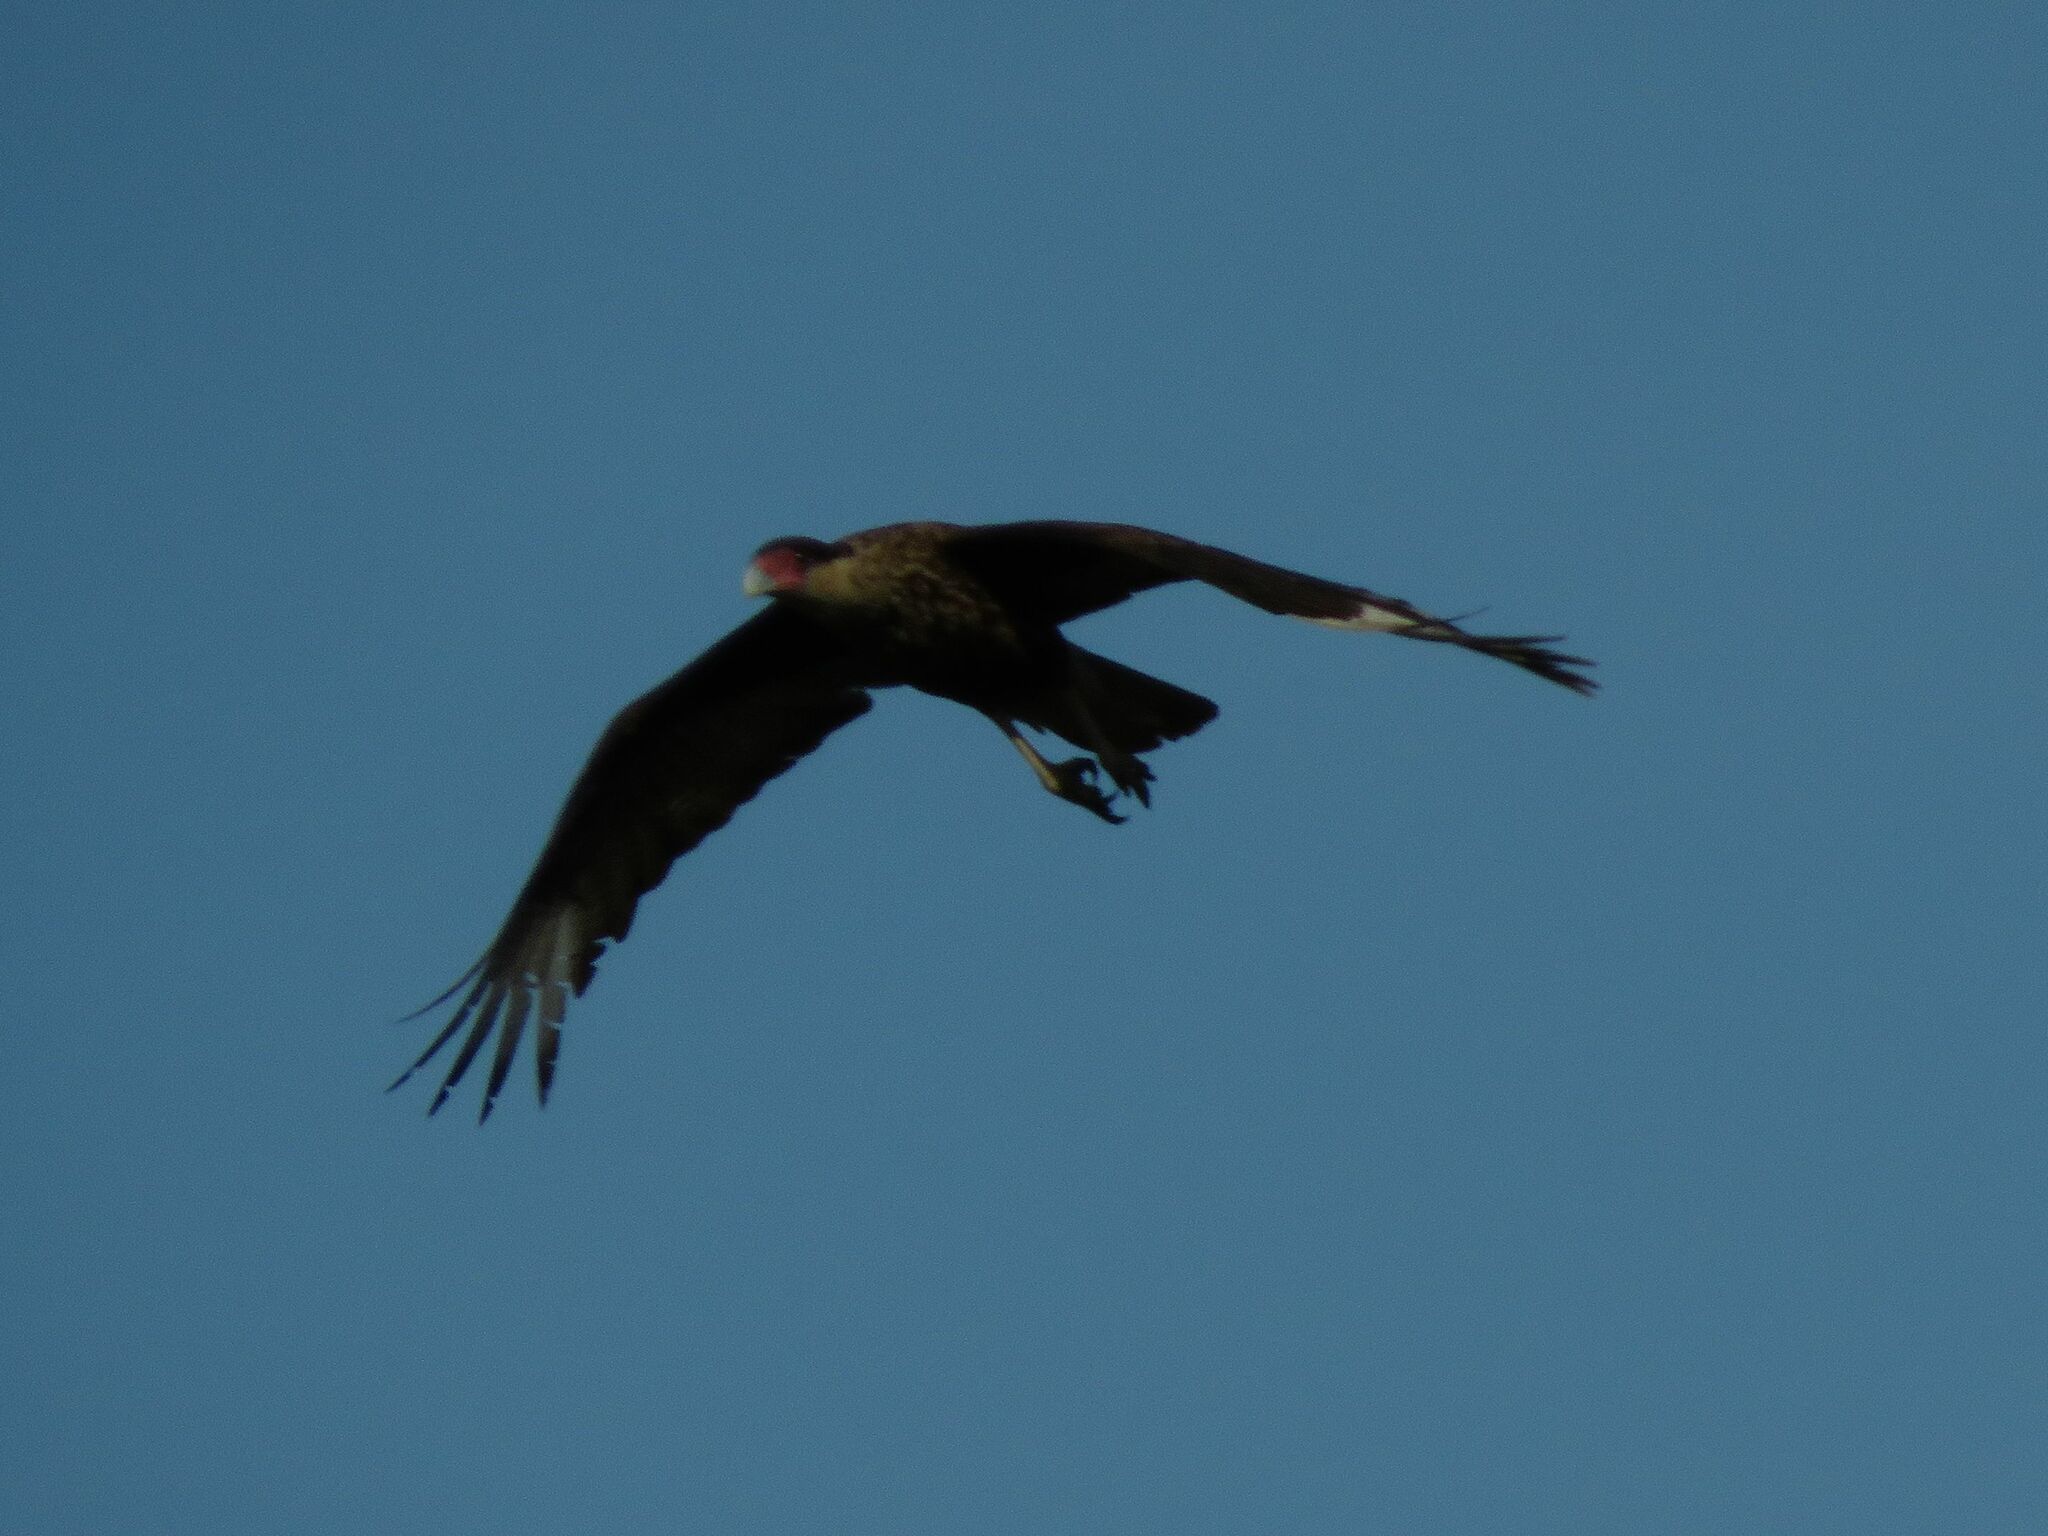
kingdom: Animalia
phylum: Chordata
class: Aves
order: Falconiformes
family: Falconidae
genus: Caracara
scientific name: Caracara plancus
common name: Southern caracara
